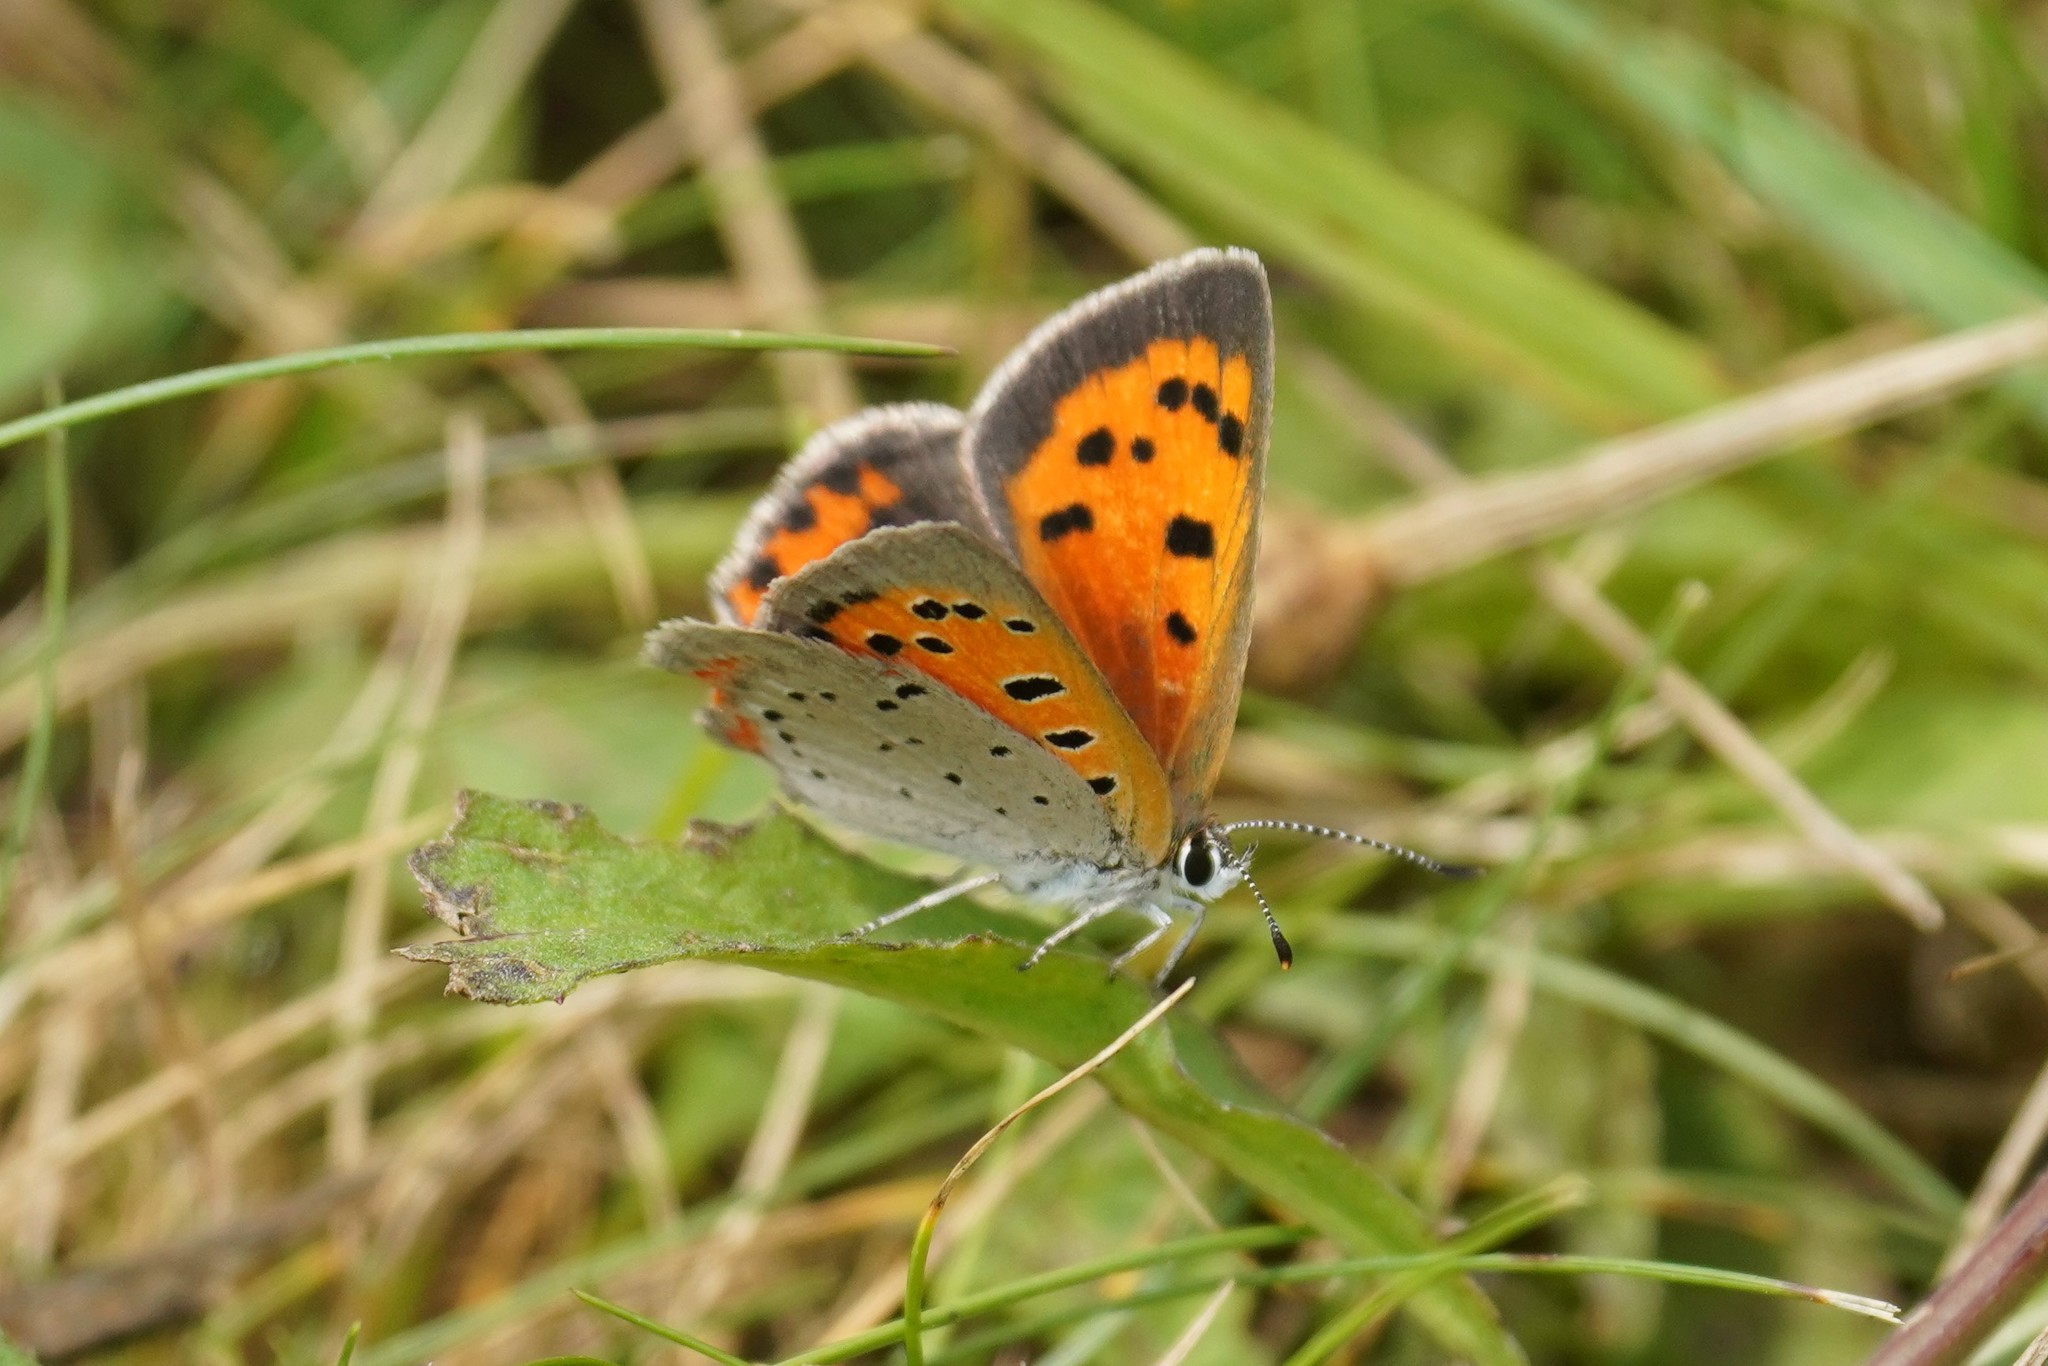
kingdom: Animalia
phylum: Arthropoda
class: Insecta
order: Lepidoptera
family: Lycaenidae
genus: Lycaena
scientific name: Lycaena hypophlaeas
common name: American copper
